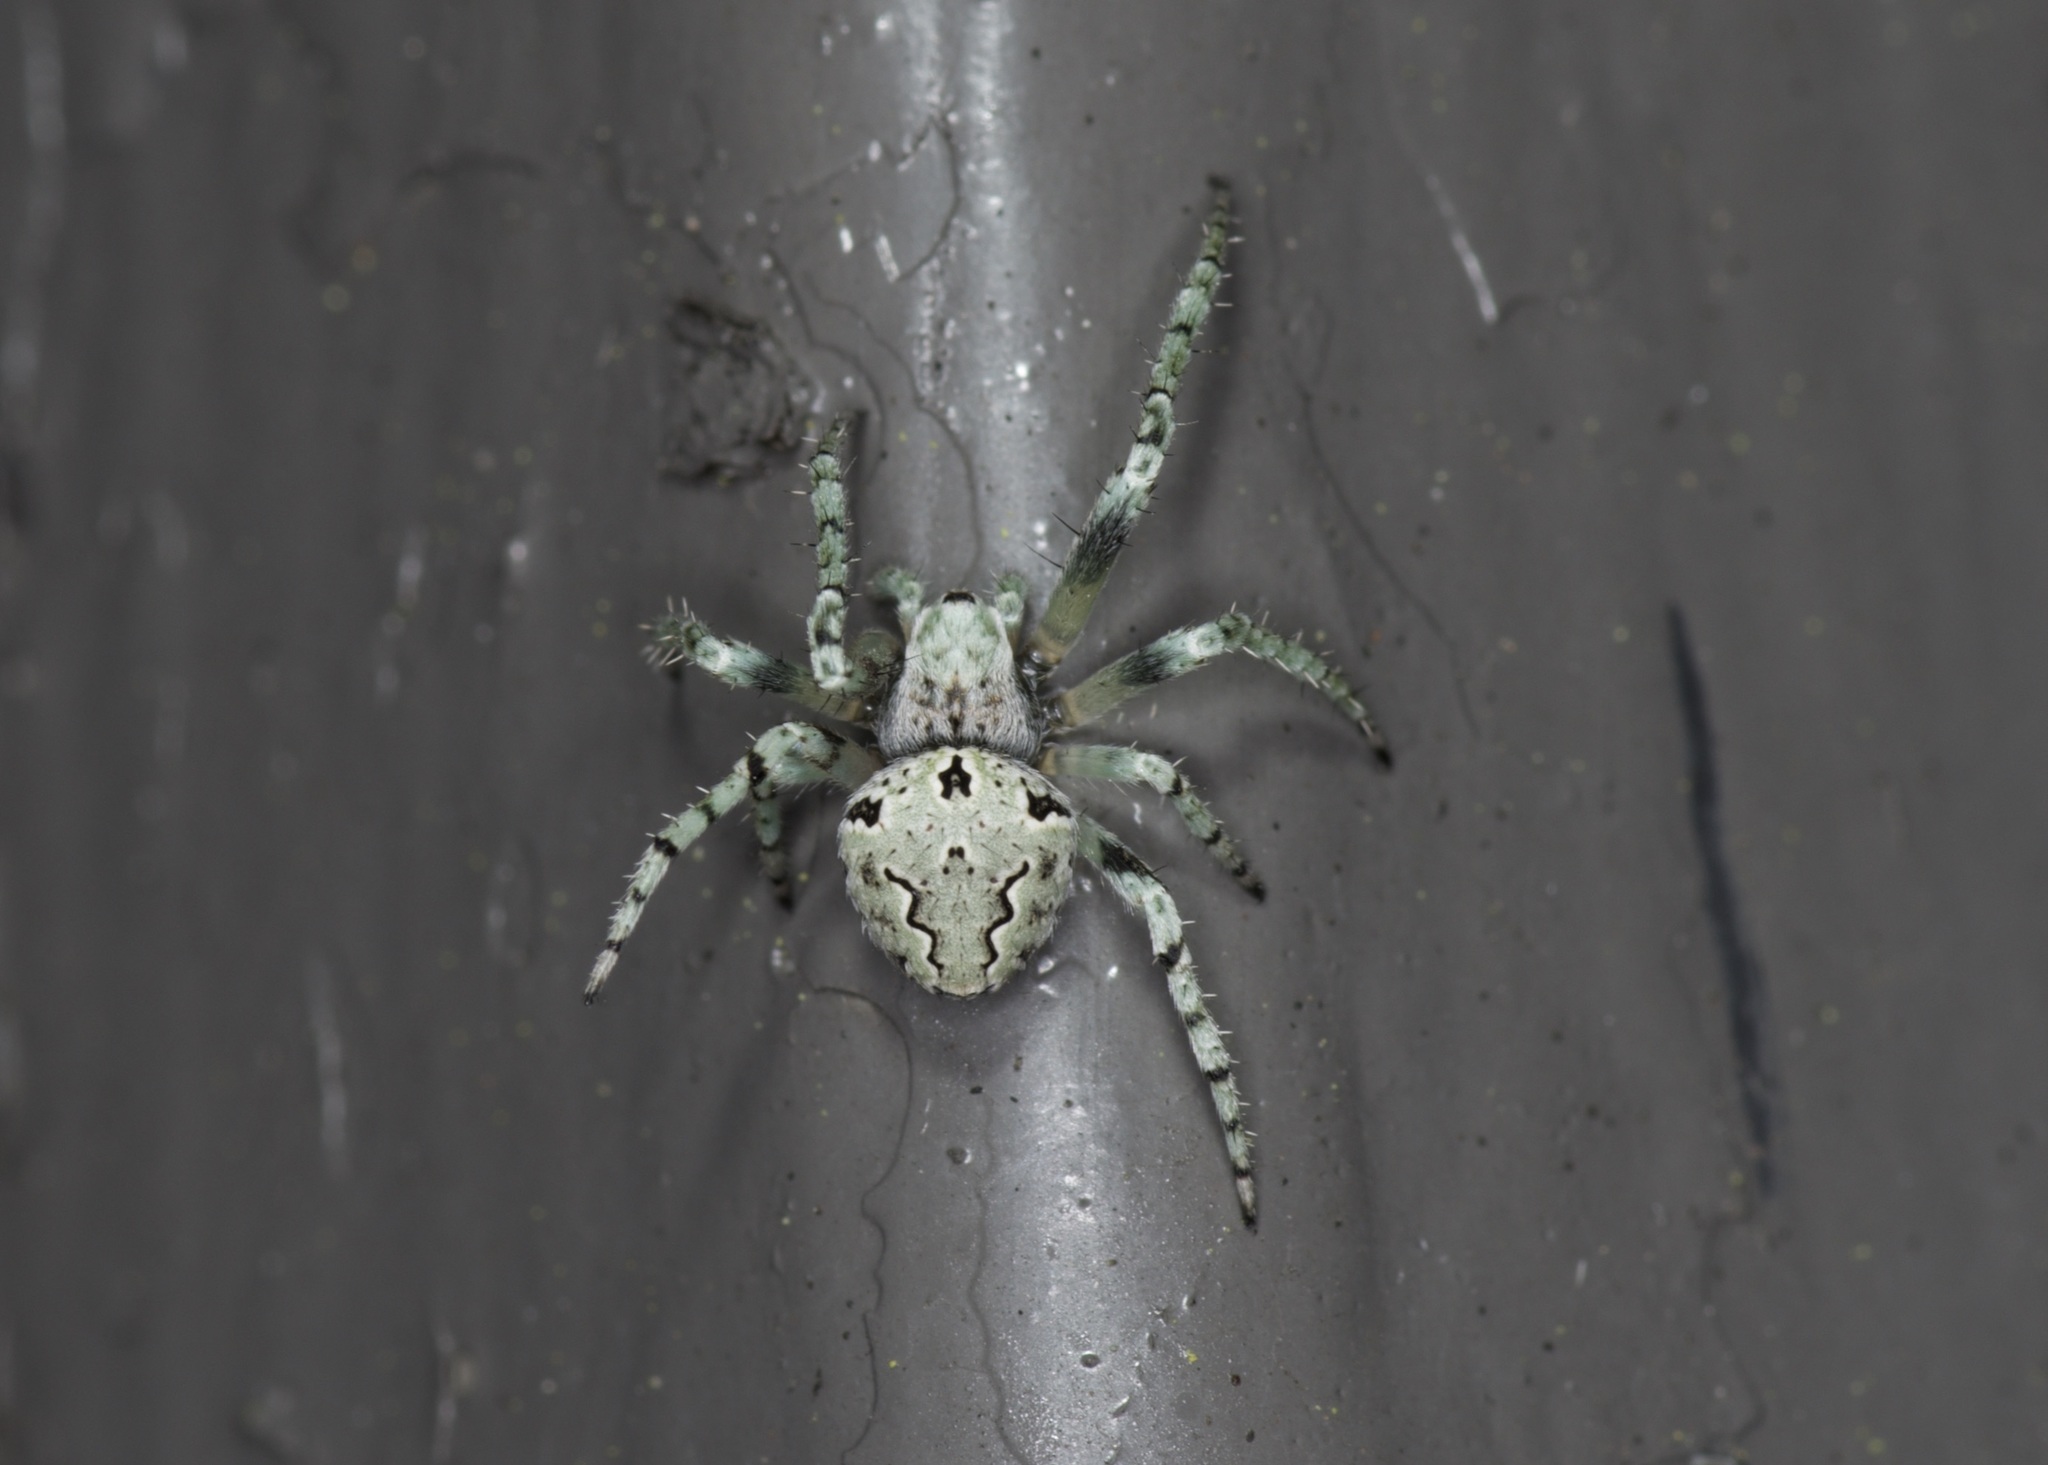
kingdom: Animalia
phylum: Arthropoda
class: Arachnida
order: Araneae
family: Araneidae
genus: Eustala
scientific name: Eustala anastera
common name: Orb weavers
